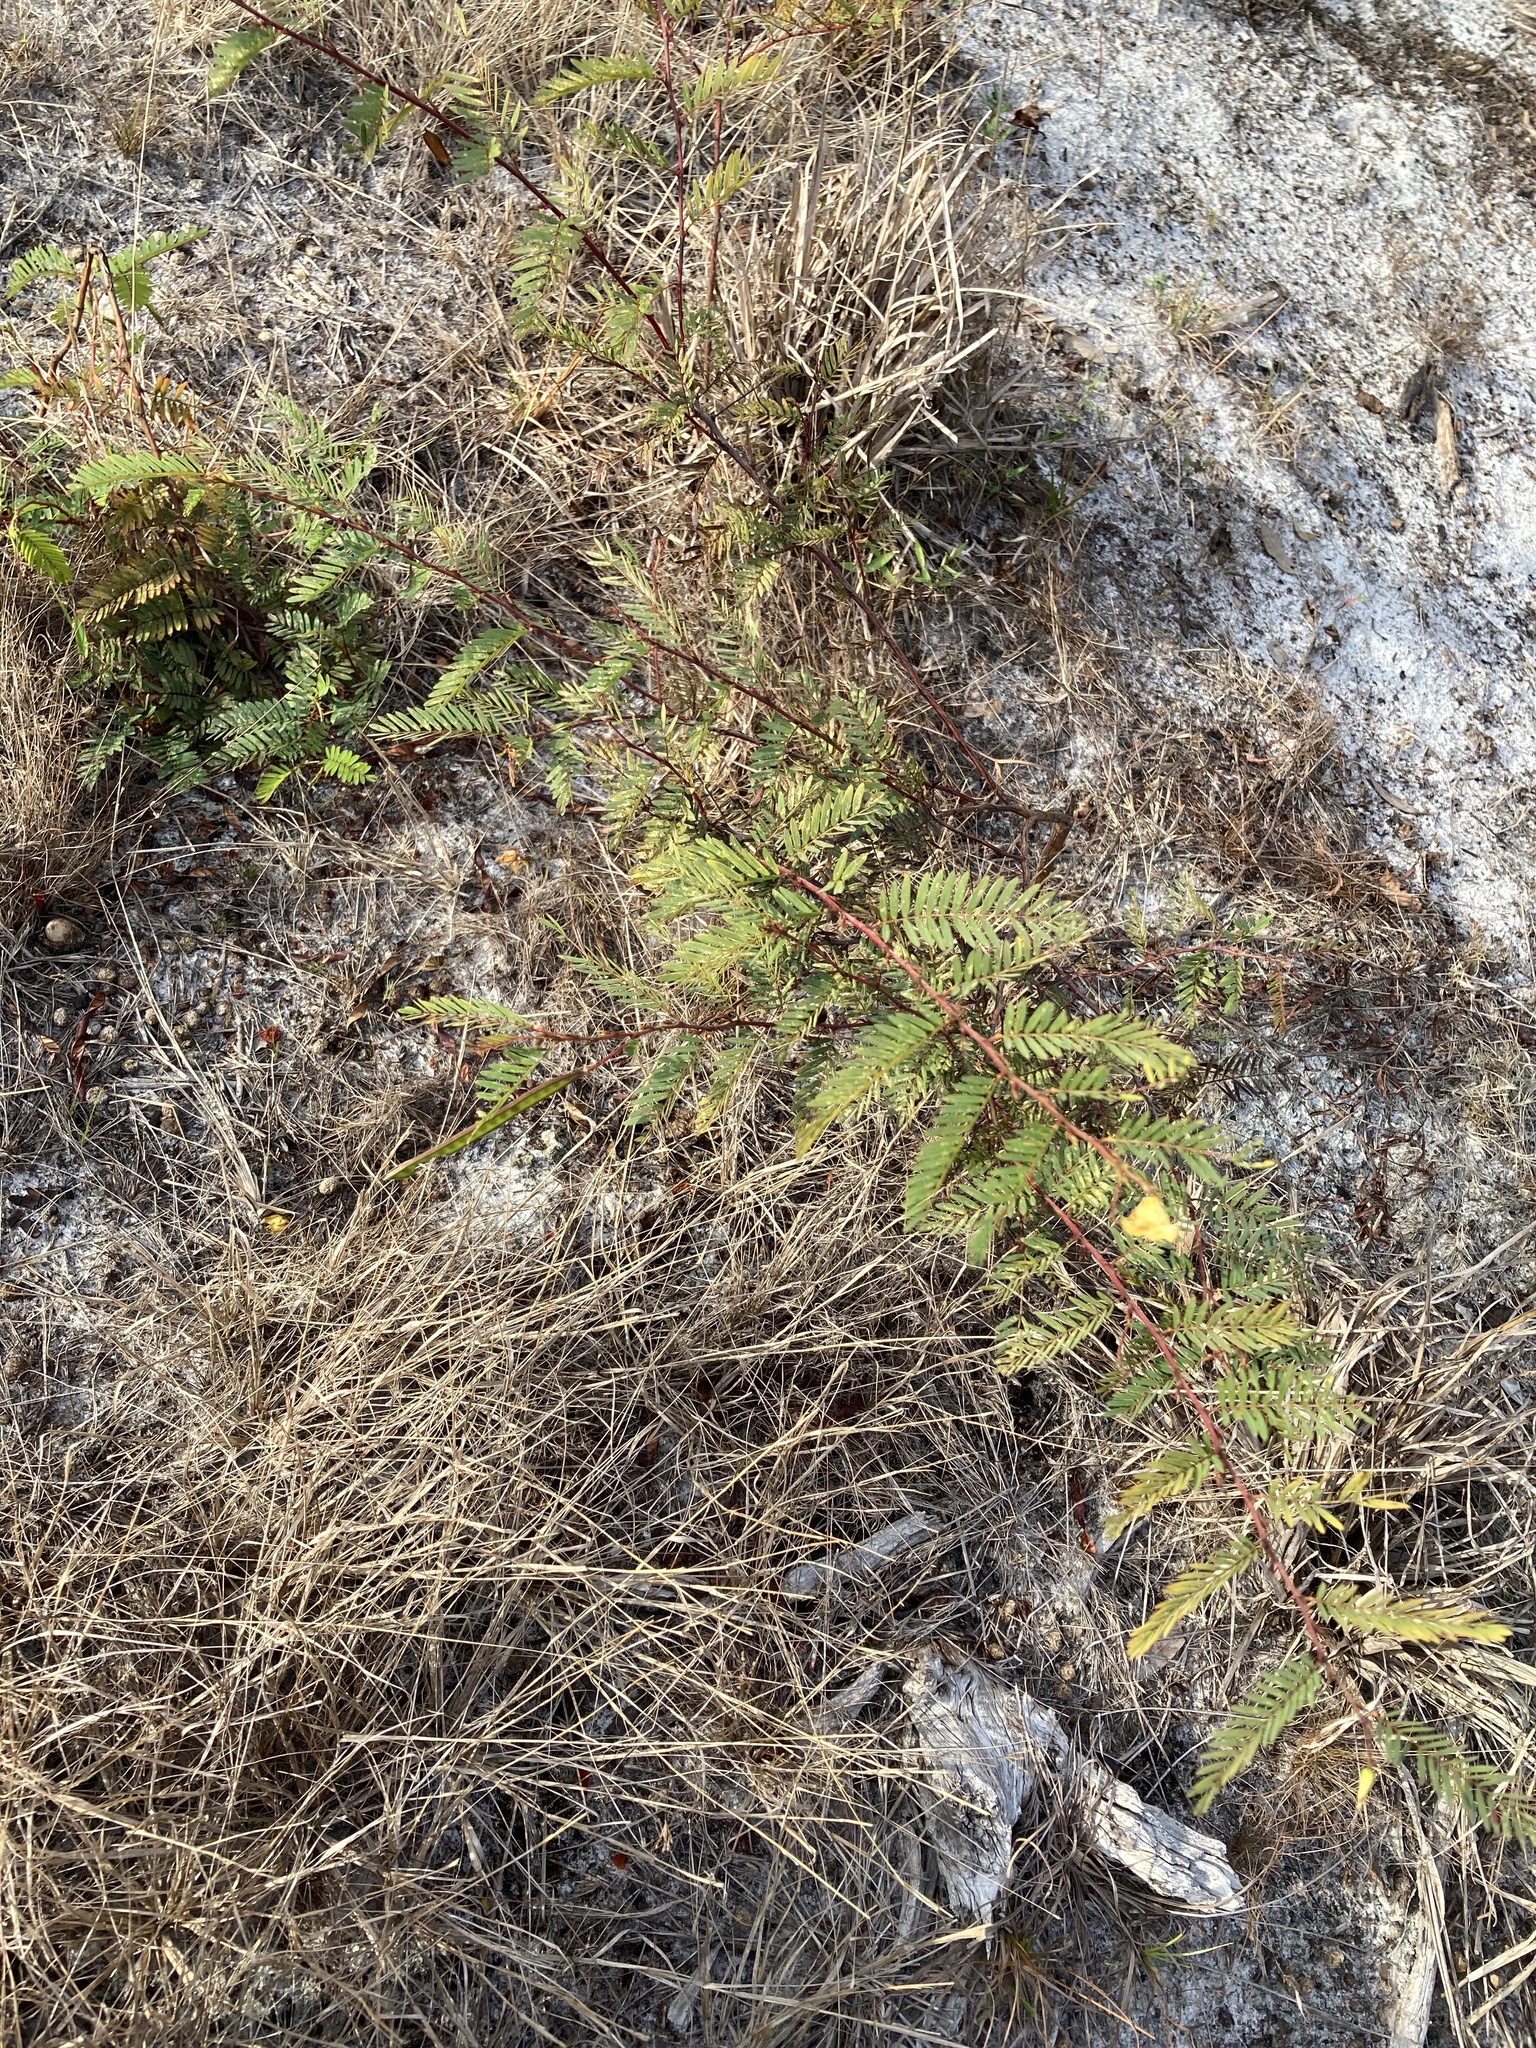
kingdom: Plantae
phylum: Tracheophyta
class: Magnoliopsida
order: Fabales
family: Fabaceae
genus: Chamaecrista
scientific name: Chamaecrista fasciculata
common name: Golden cassia
